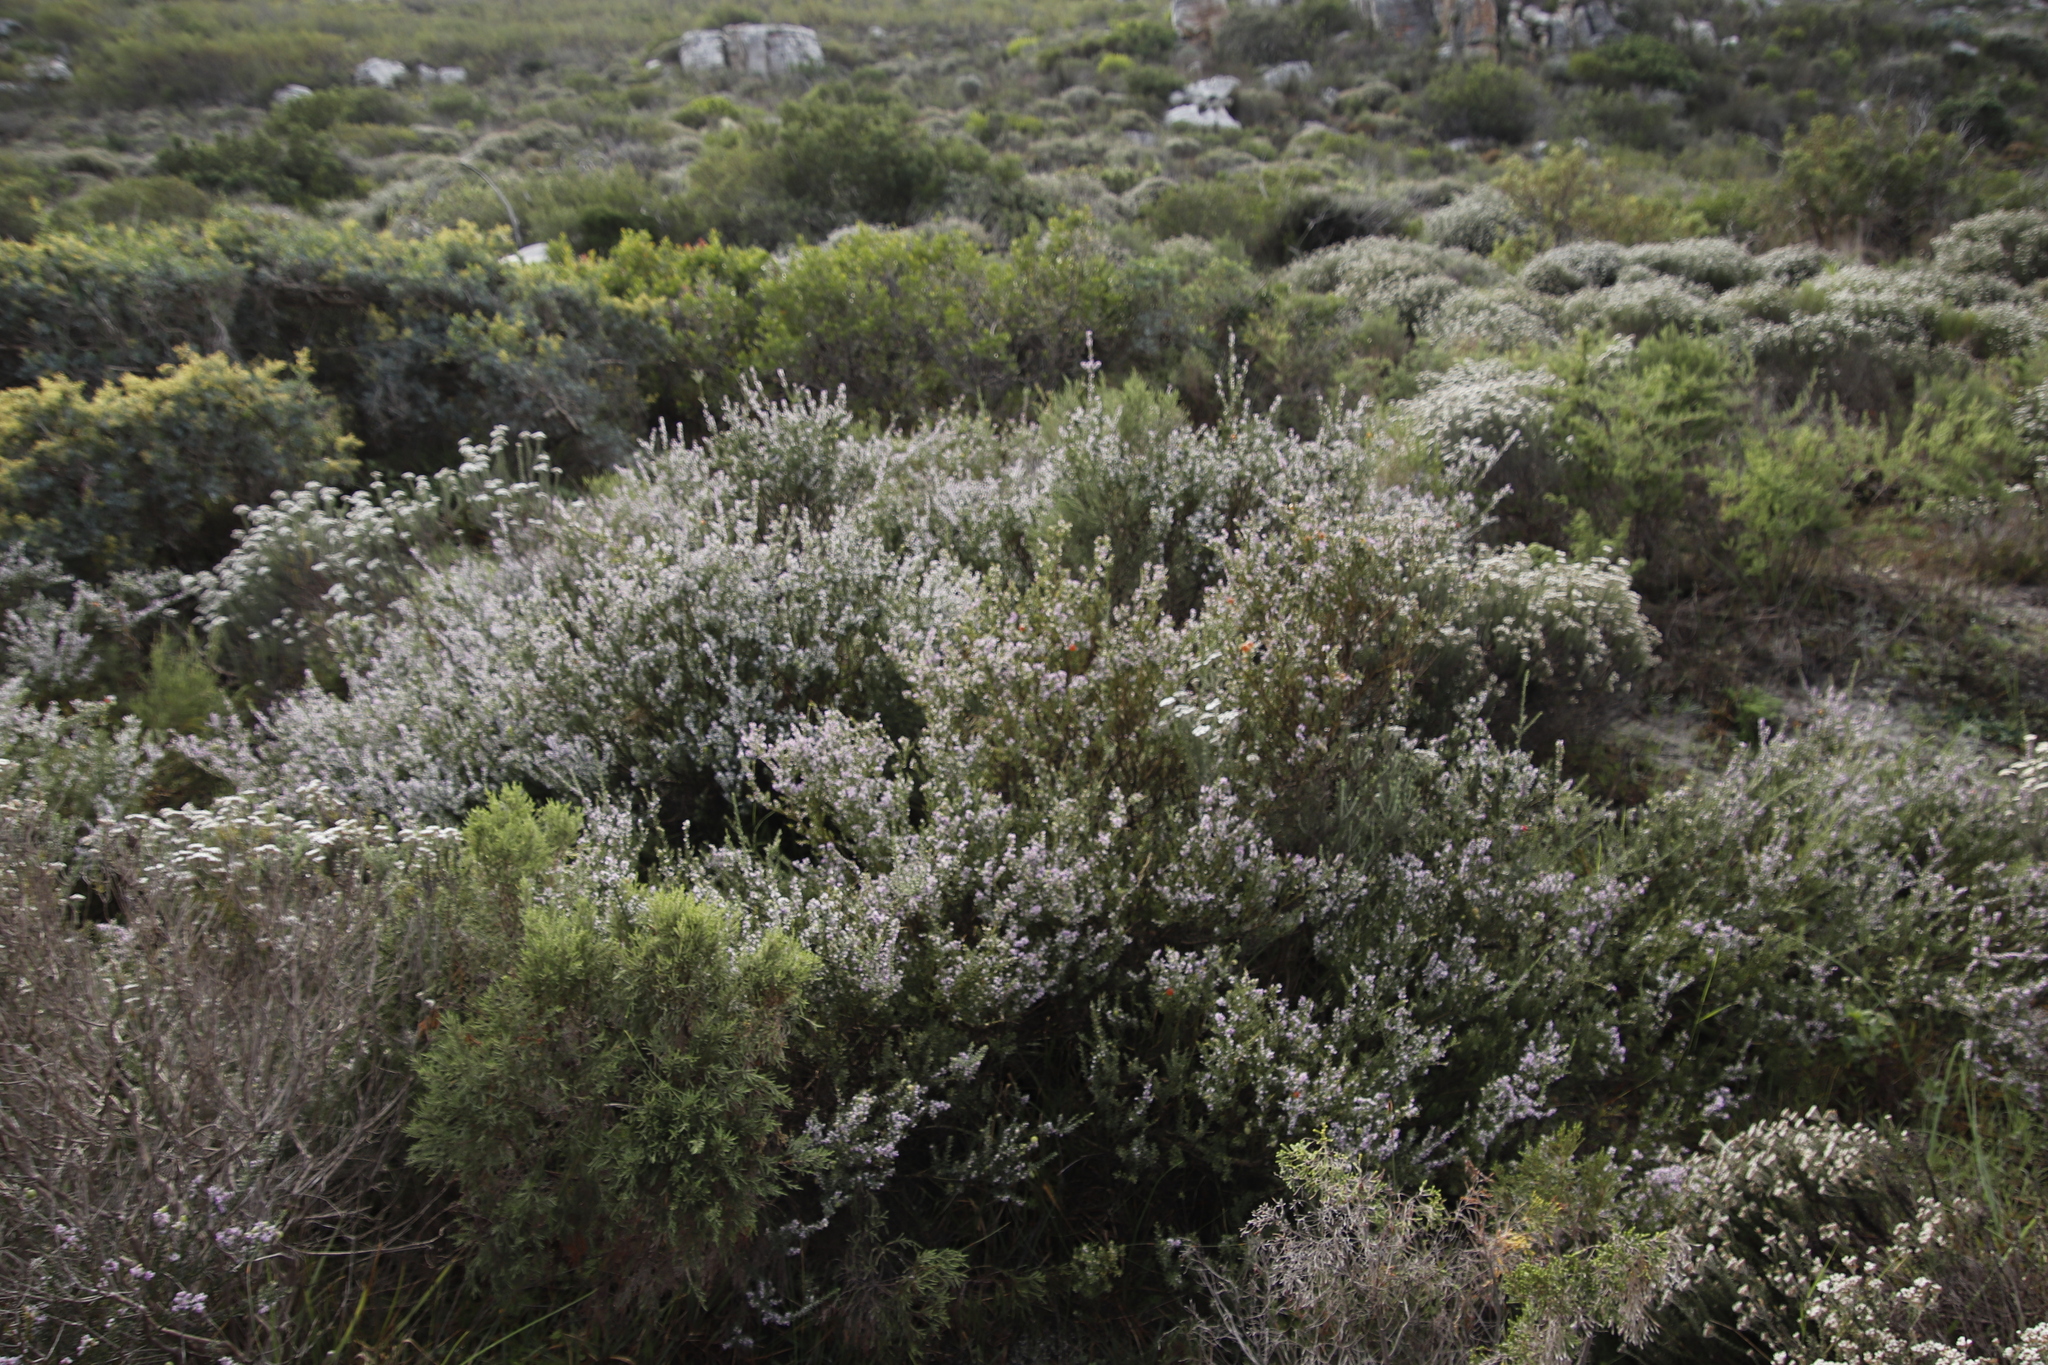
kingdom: Plantae
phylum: Tracheophyta
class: Magnoliopsida
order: Fabales
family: Polygalaceae
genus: Muraltia
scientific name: Muraltia spinosa
